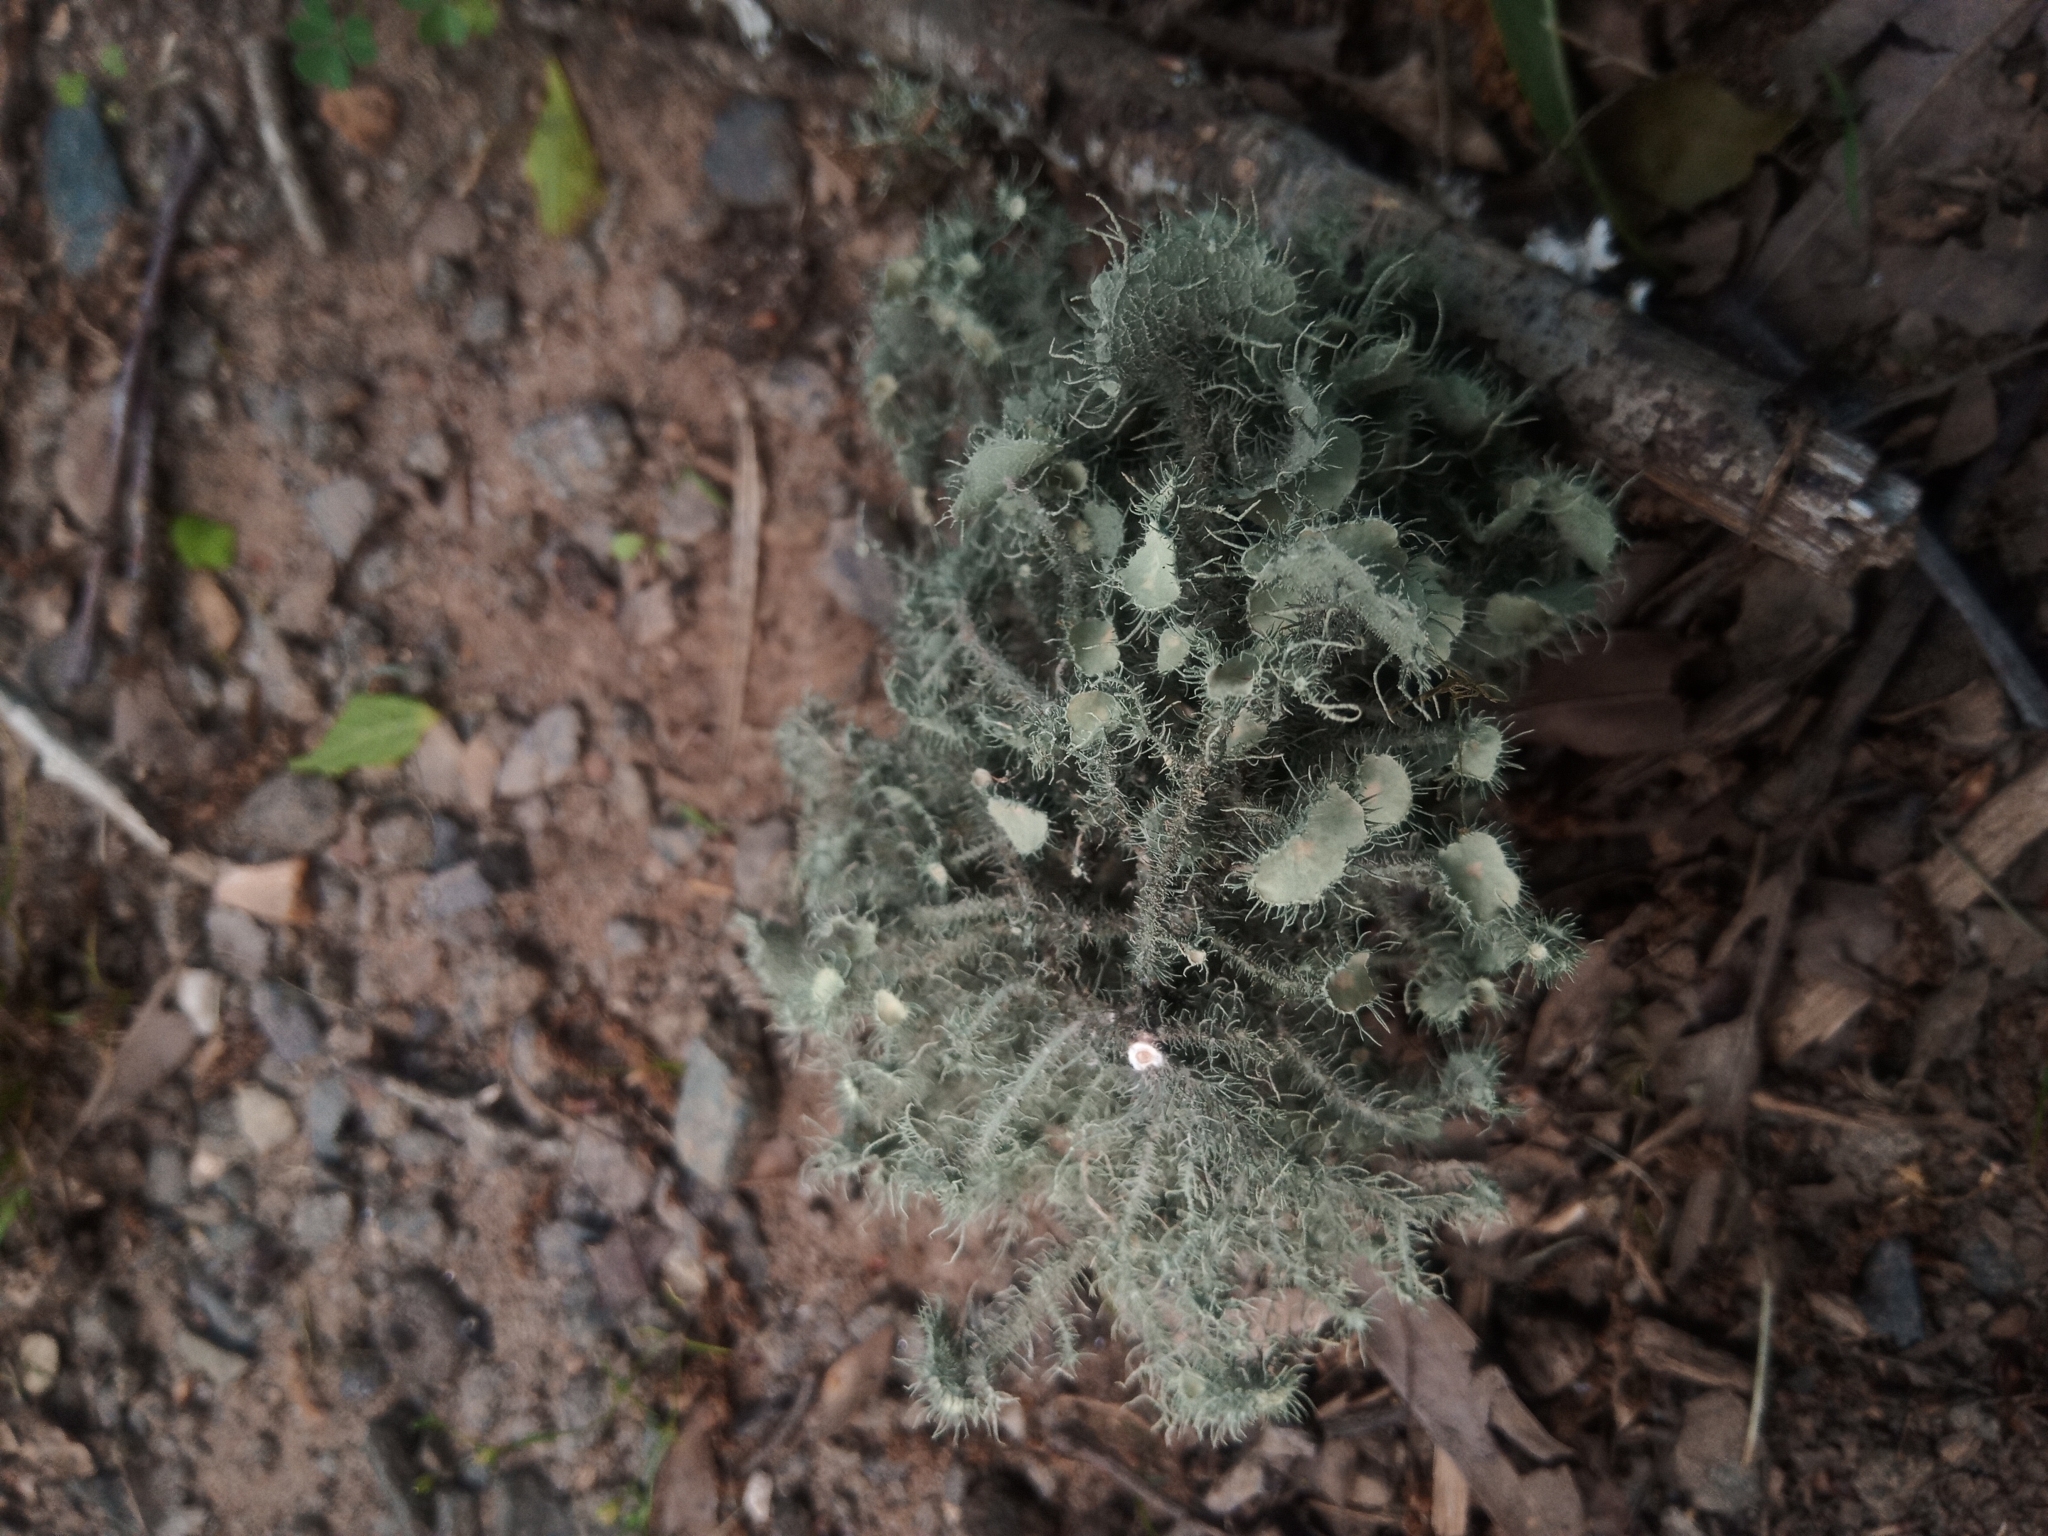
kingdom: Fungi
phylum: Ascomycota
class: Lecanoromycetes
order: Lecanorales
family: Parmeliaceae
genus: Usnea
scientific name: Usnea strigosa
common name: Bushy beard lichen
